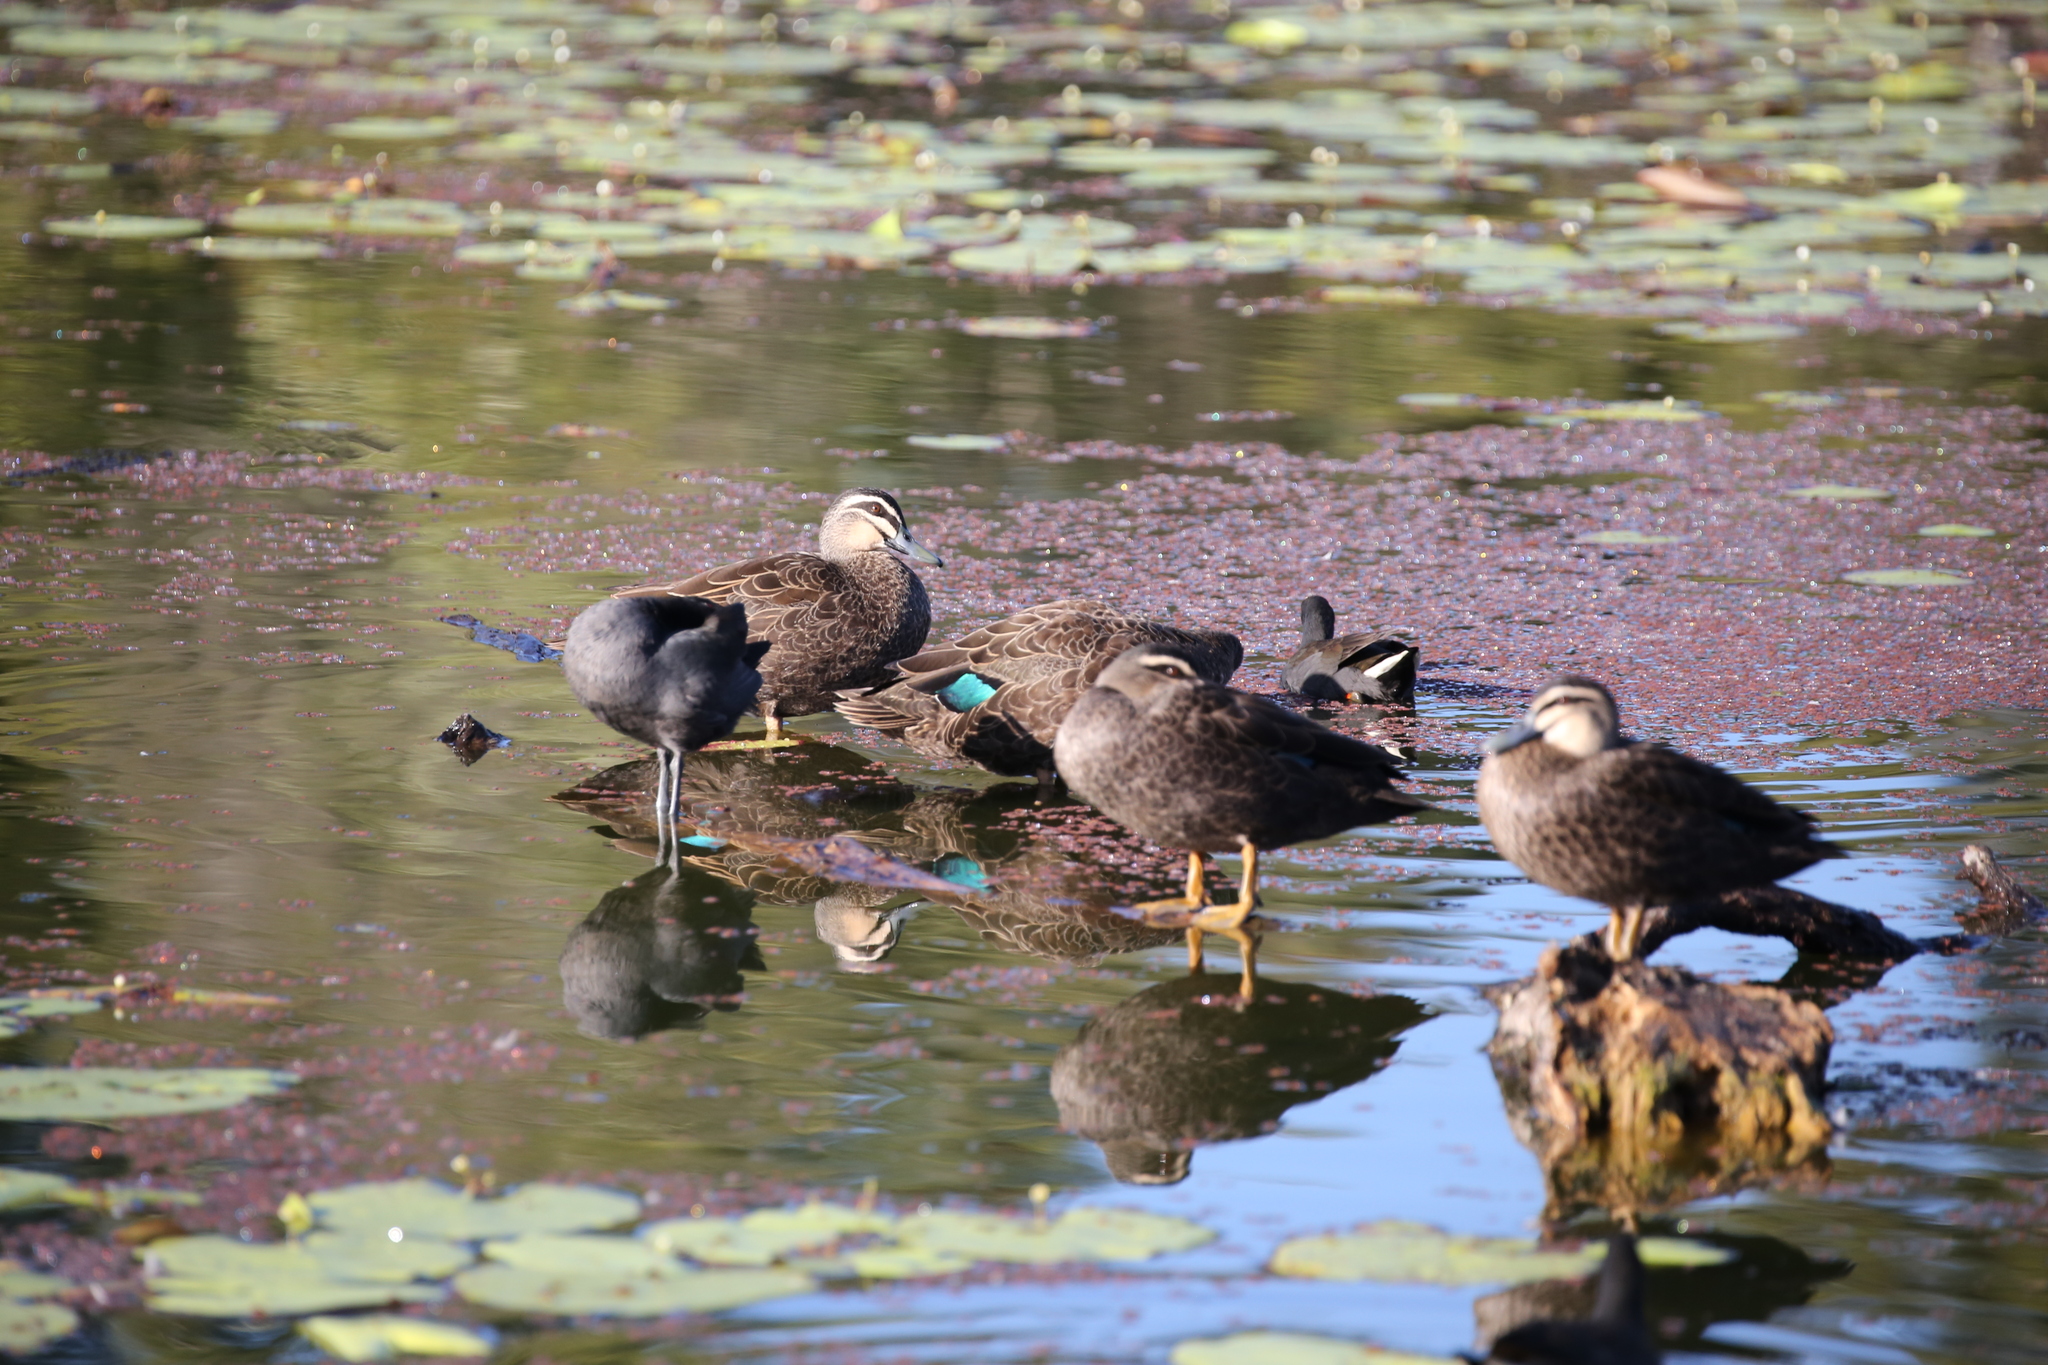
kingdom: Animalia
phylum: Chordata
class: Aves
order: Anseriformes
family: Anatidae
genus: Anas
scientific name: Anas superciliosa
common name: Pacific black duck
